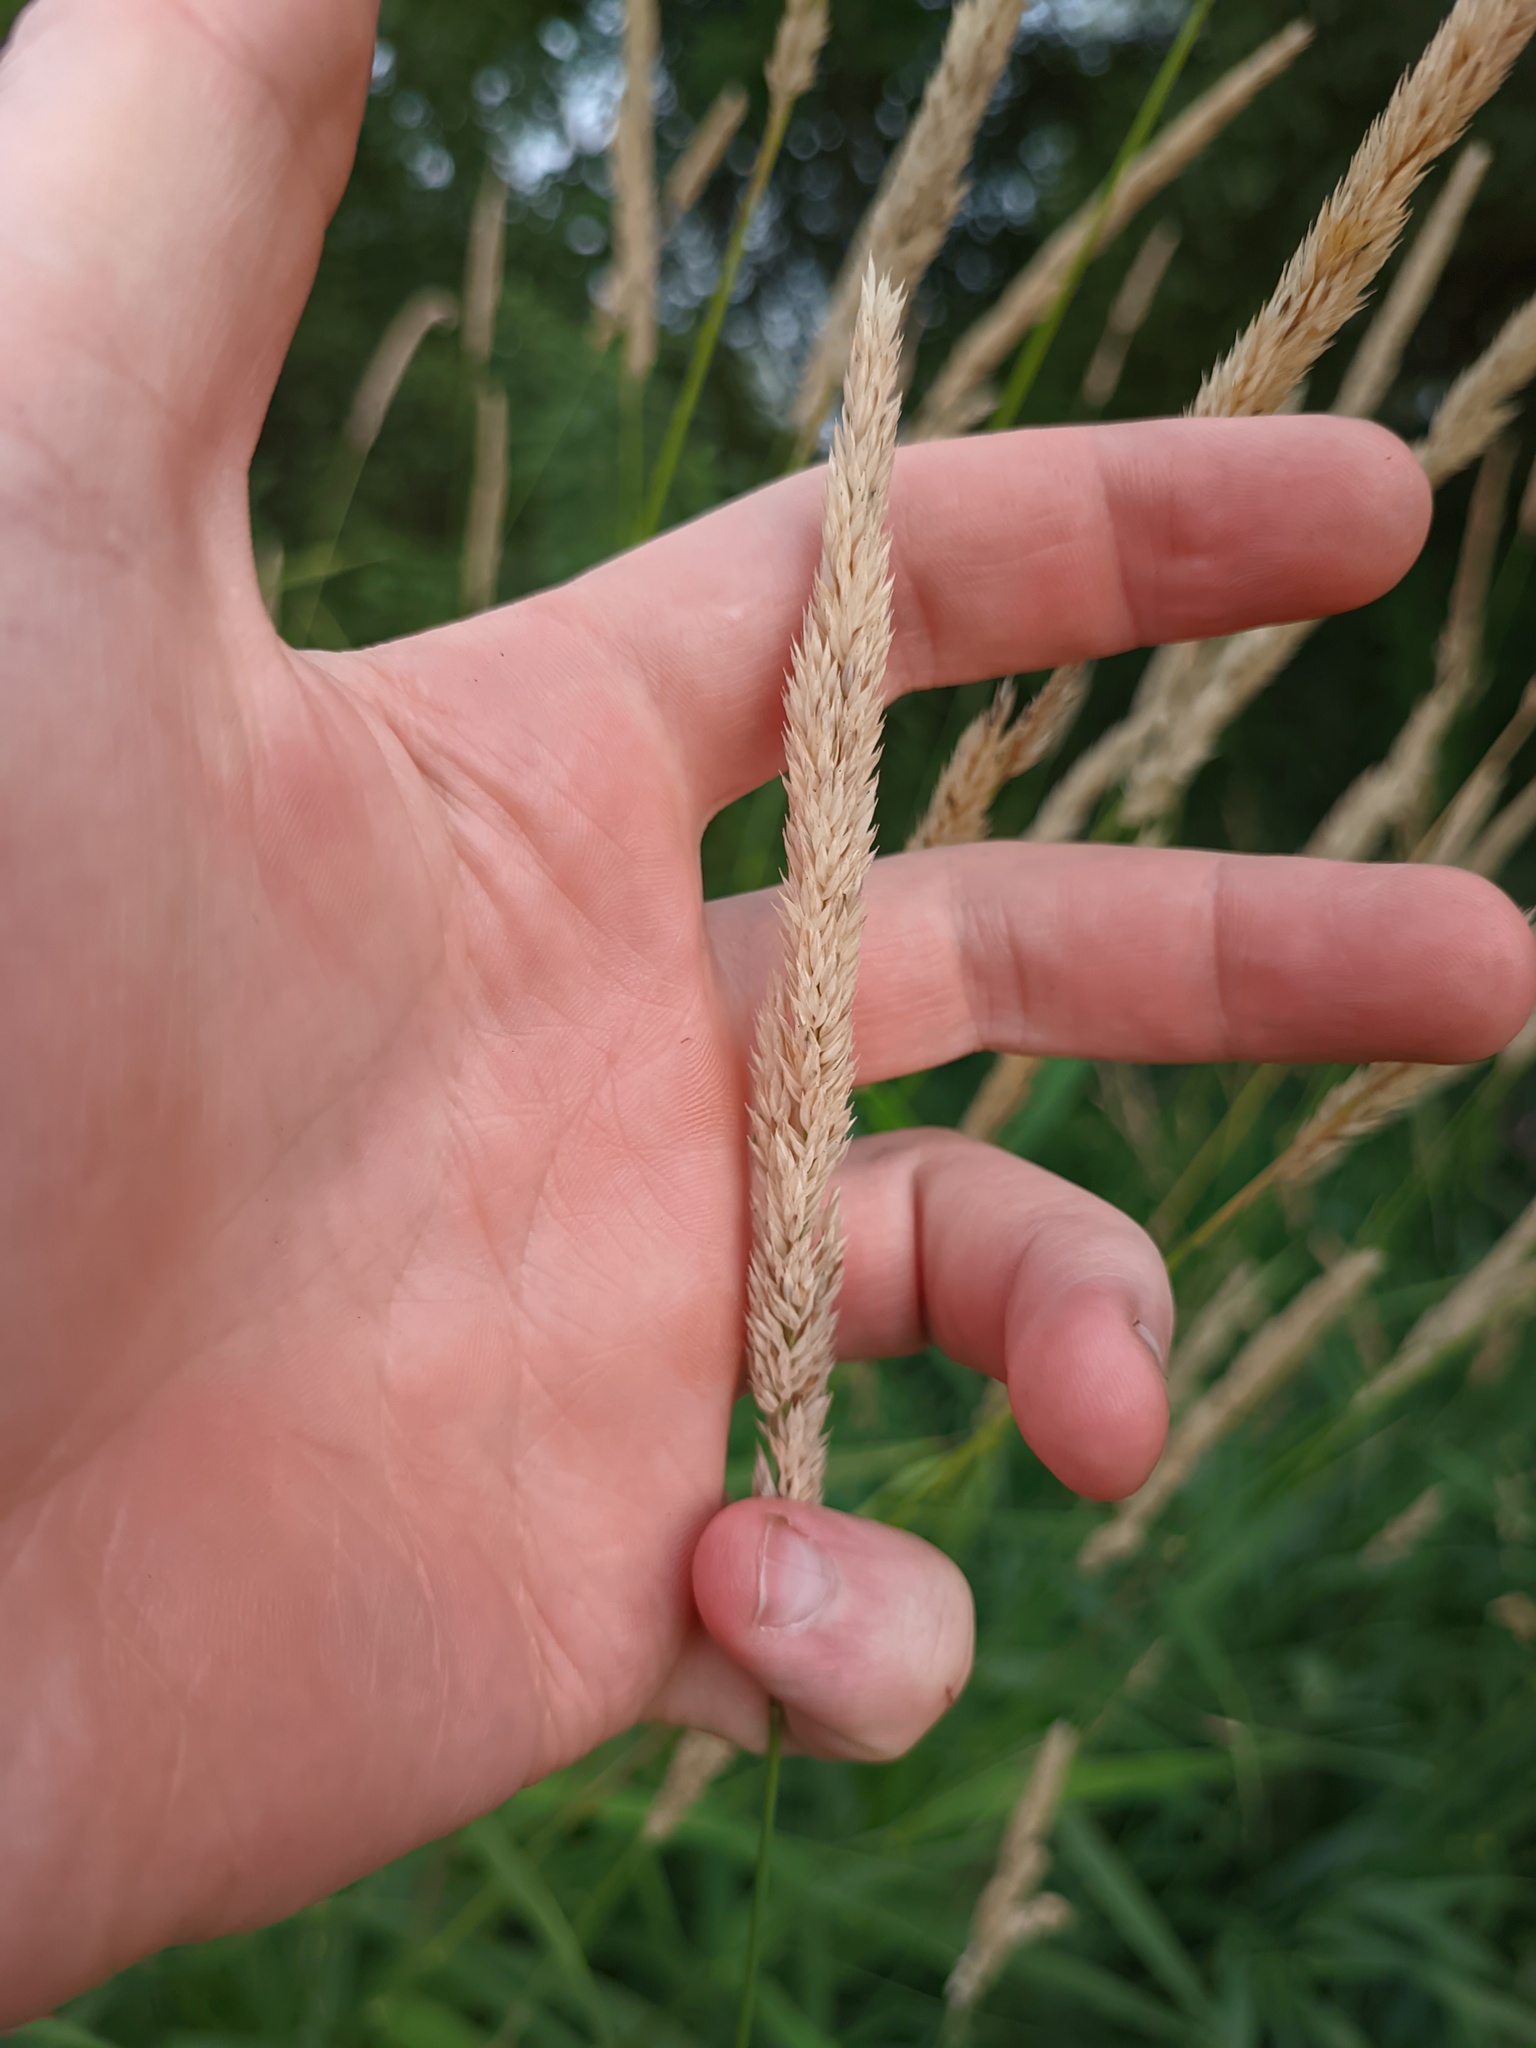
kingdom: Plantae
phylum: Tracheophyta
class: Liliopsida
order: Poales
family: Poaceae
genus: Phalaris
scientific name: Phalaris arundinacea
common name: Reed canary-grass
